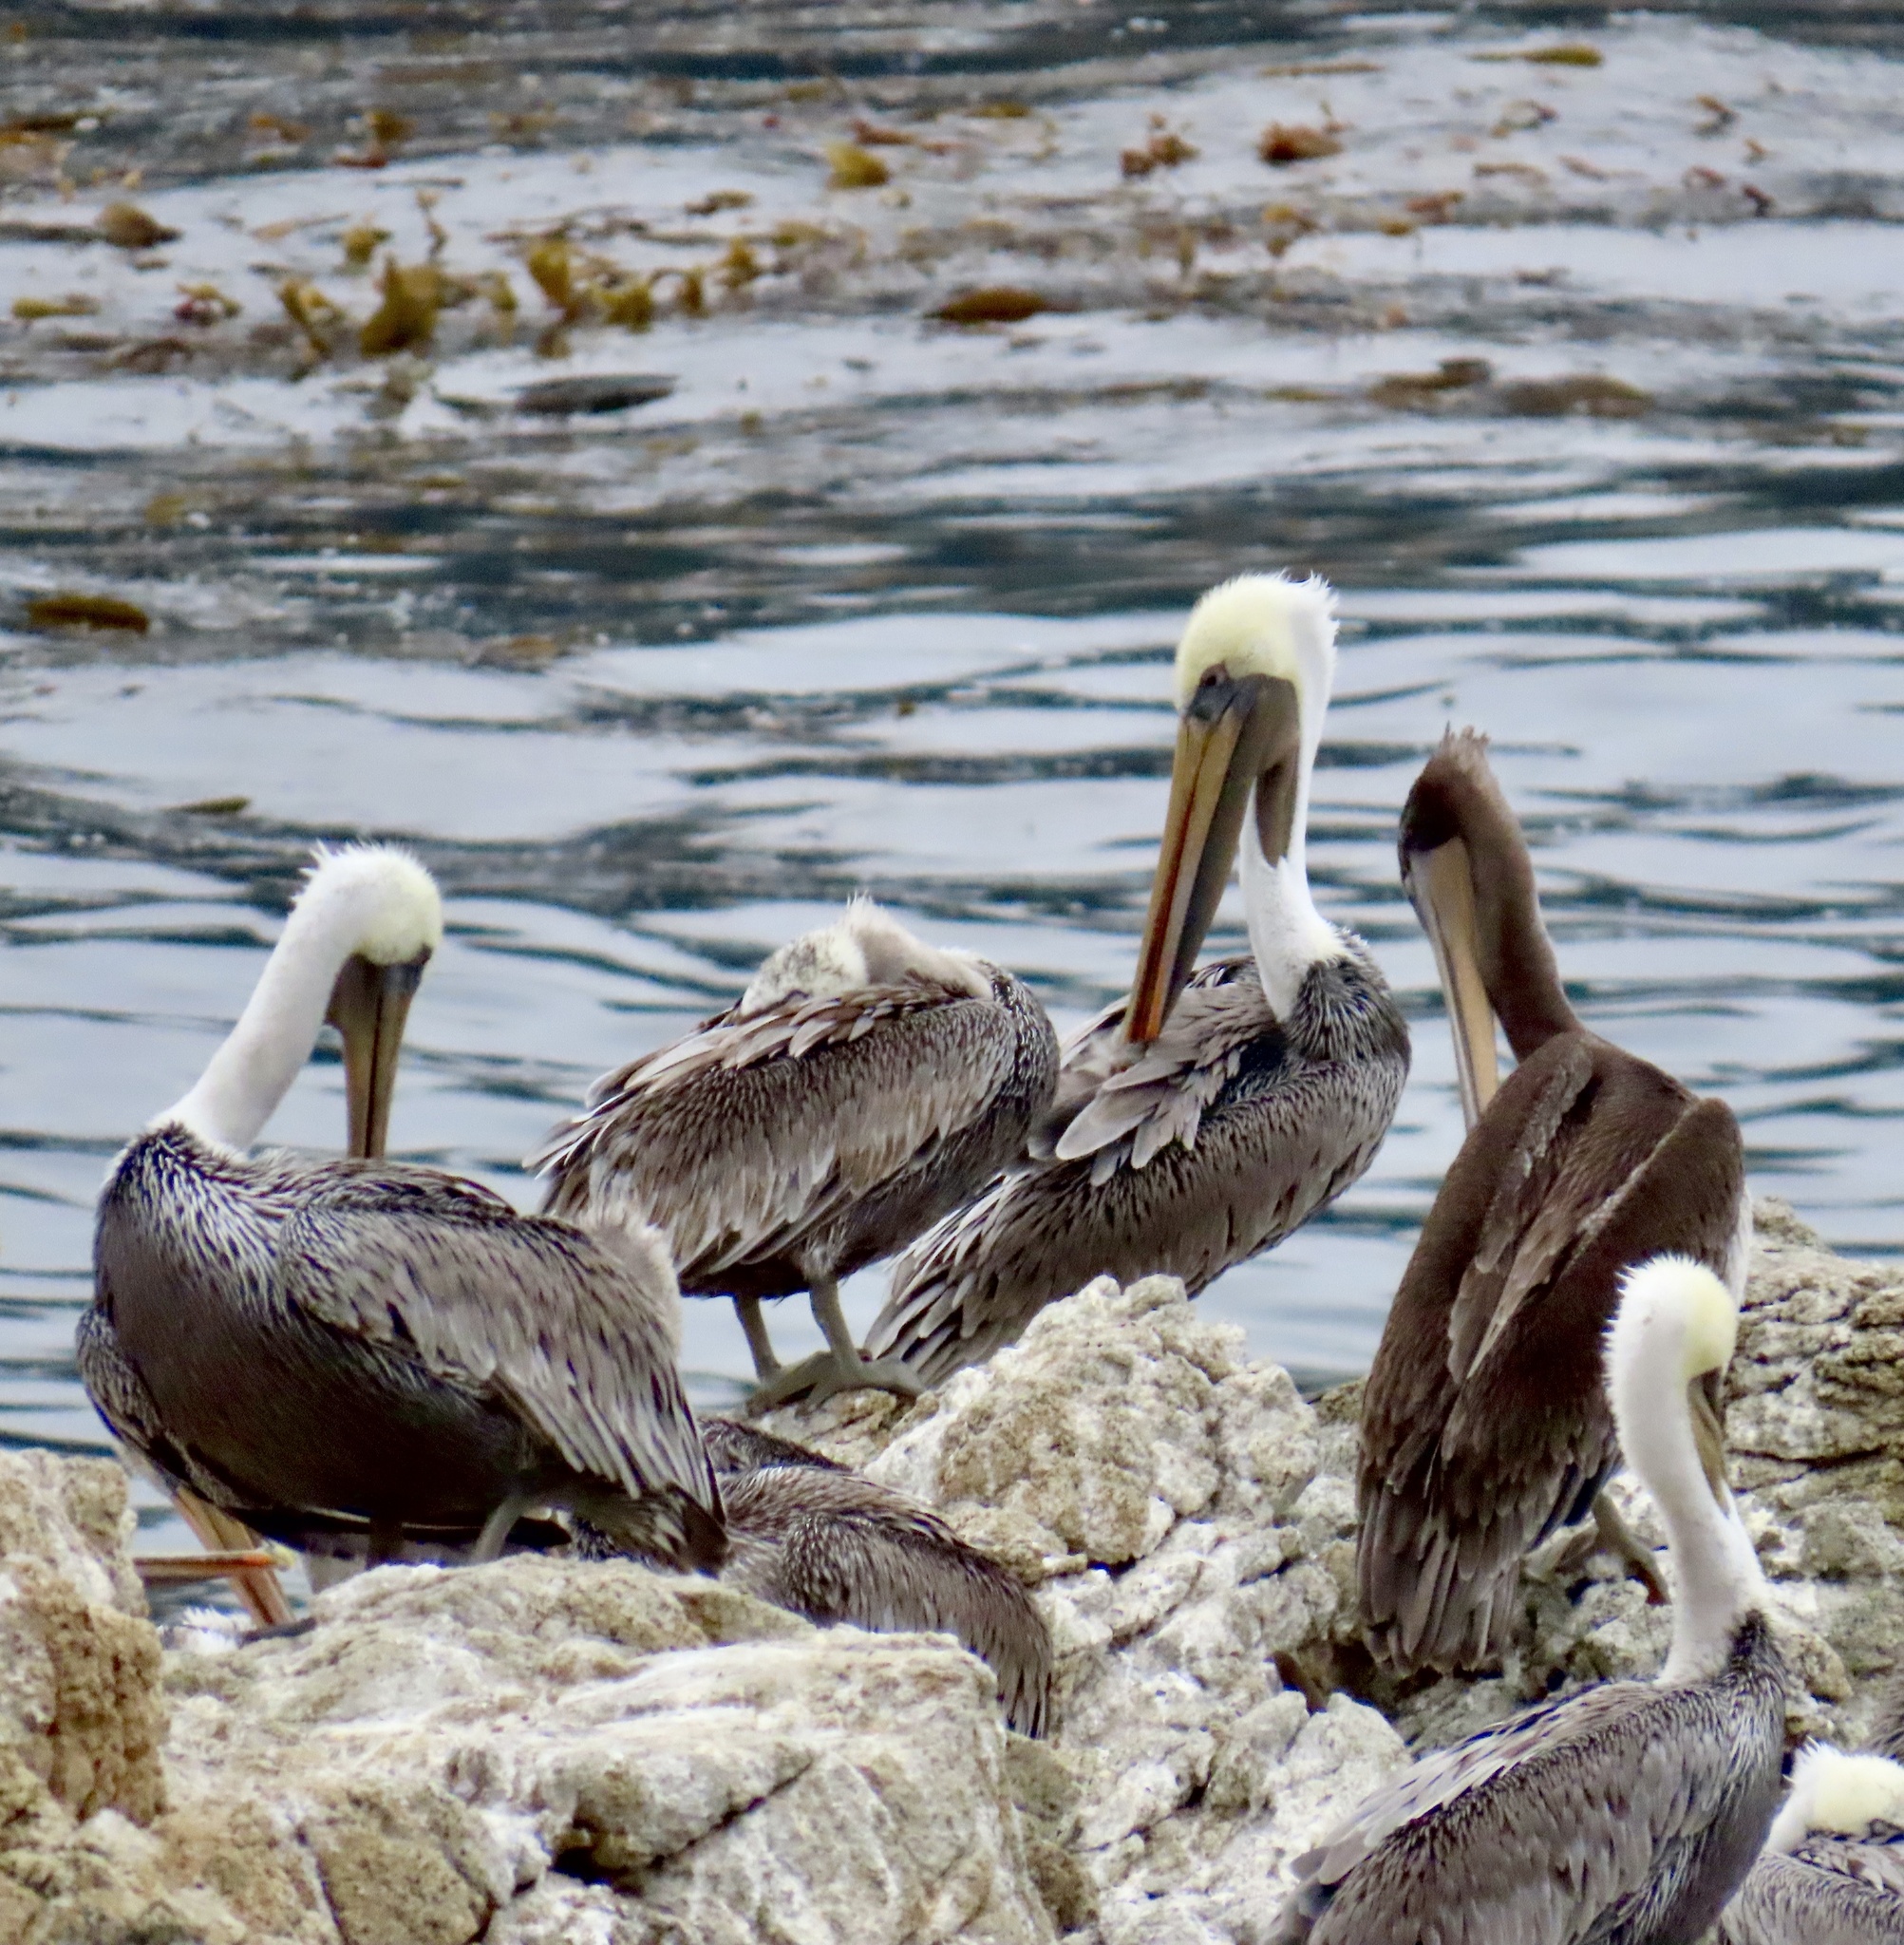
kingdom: Animalia
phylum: Chordata
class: Aves
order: Pelecaniformes
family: Pelecanidae
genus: Pelecanus
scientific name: Pelecanus occidentalis
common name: Brown pelican
